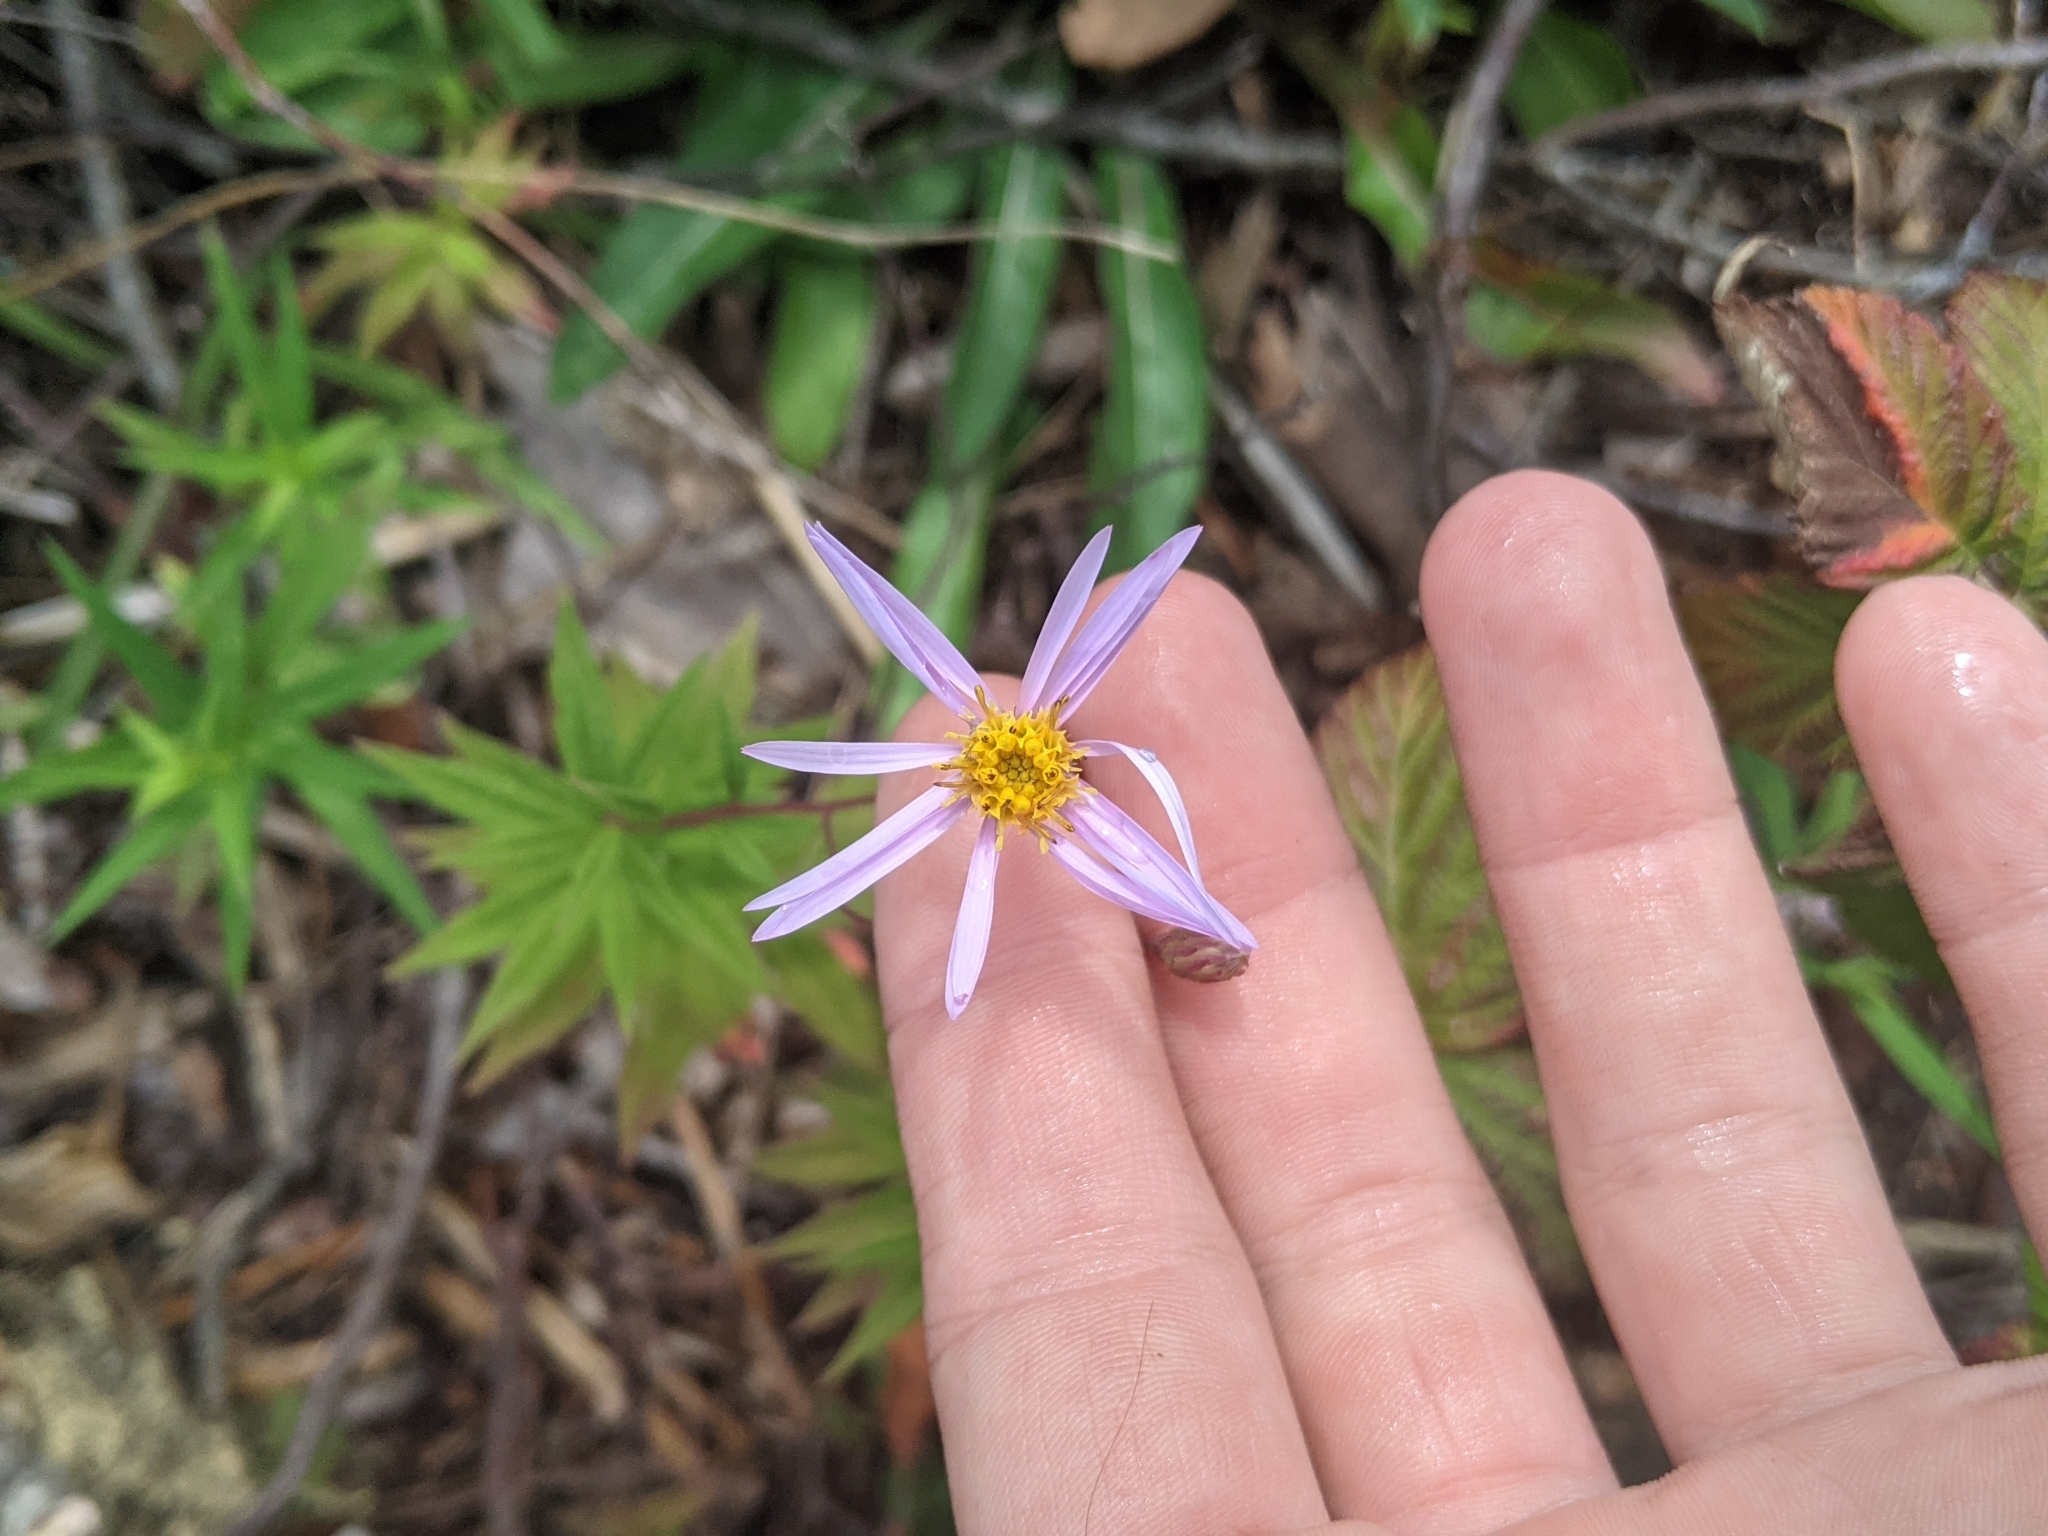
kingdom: Plantae
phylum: Tracheophyta
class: Magnoliopsida
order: Asterales
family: Asteraceae
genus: Oclemena
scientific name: Oclemena nemoralis
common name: Bog aster
